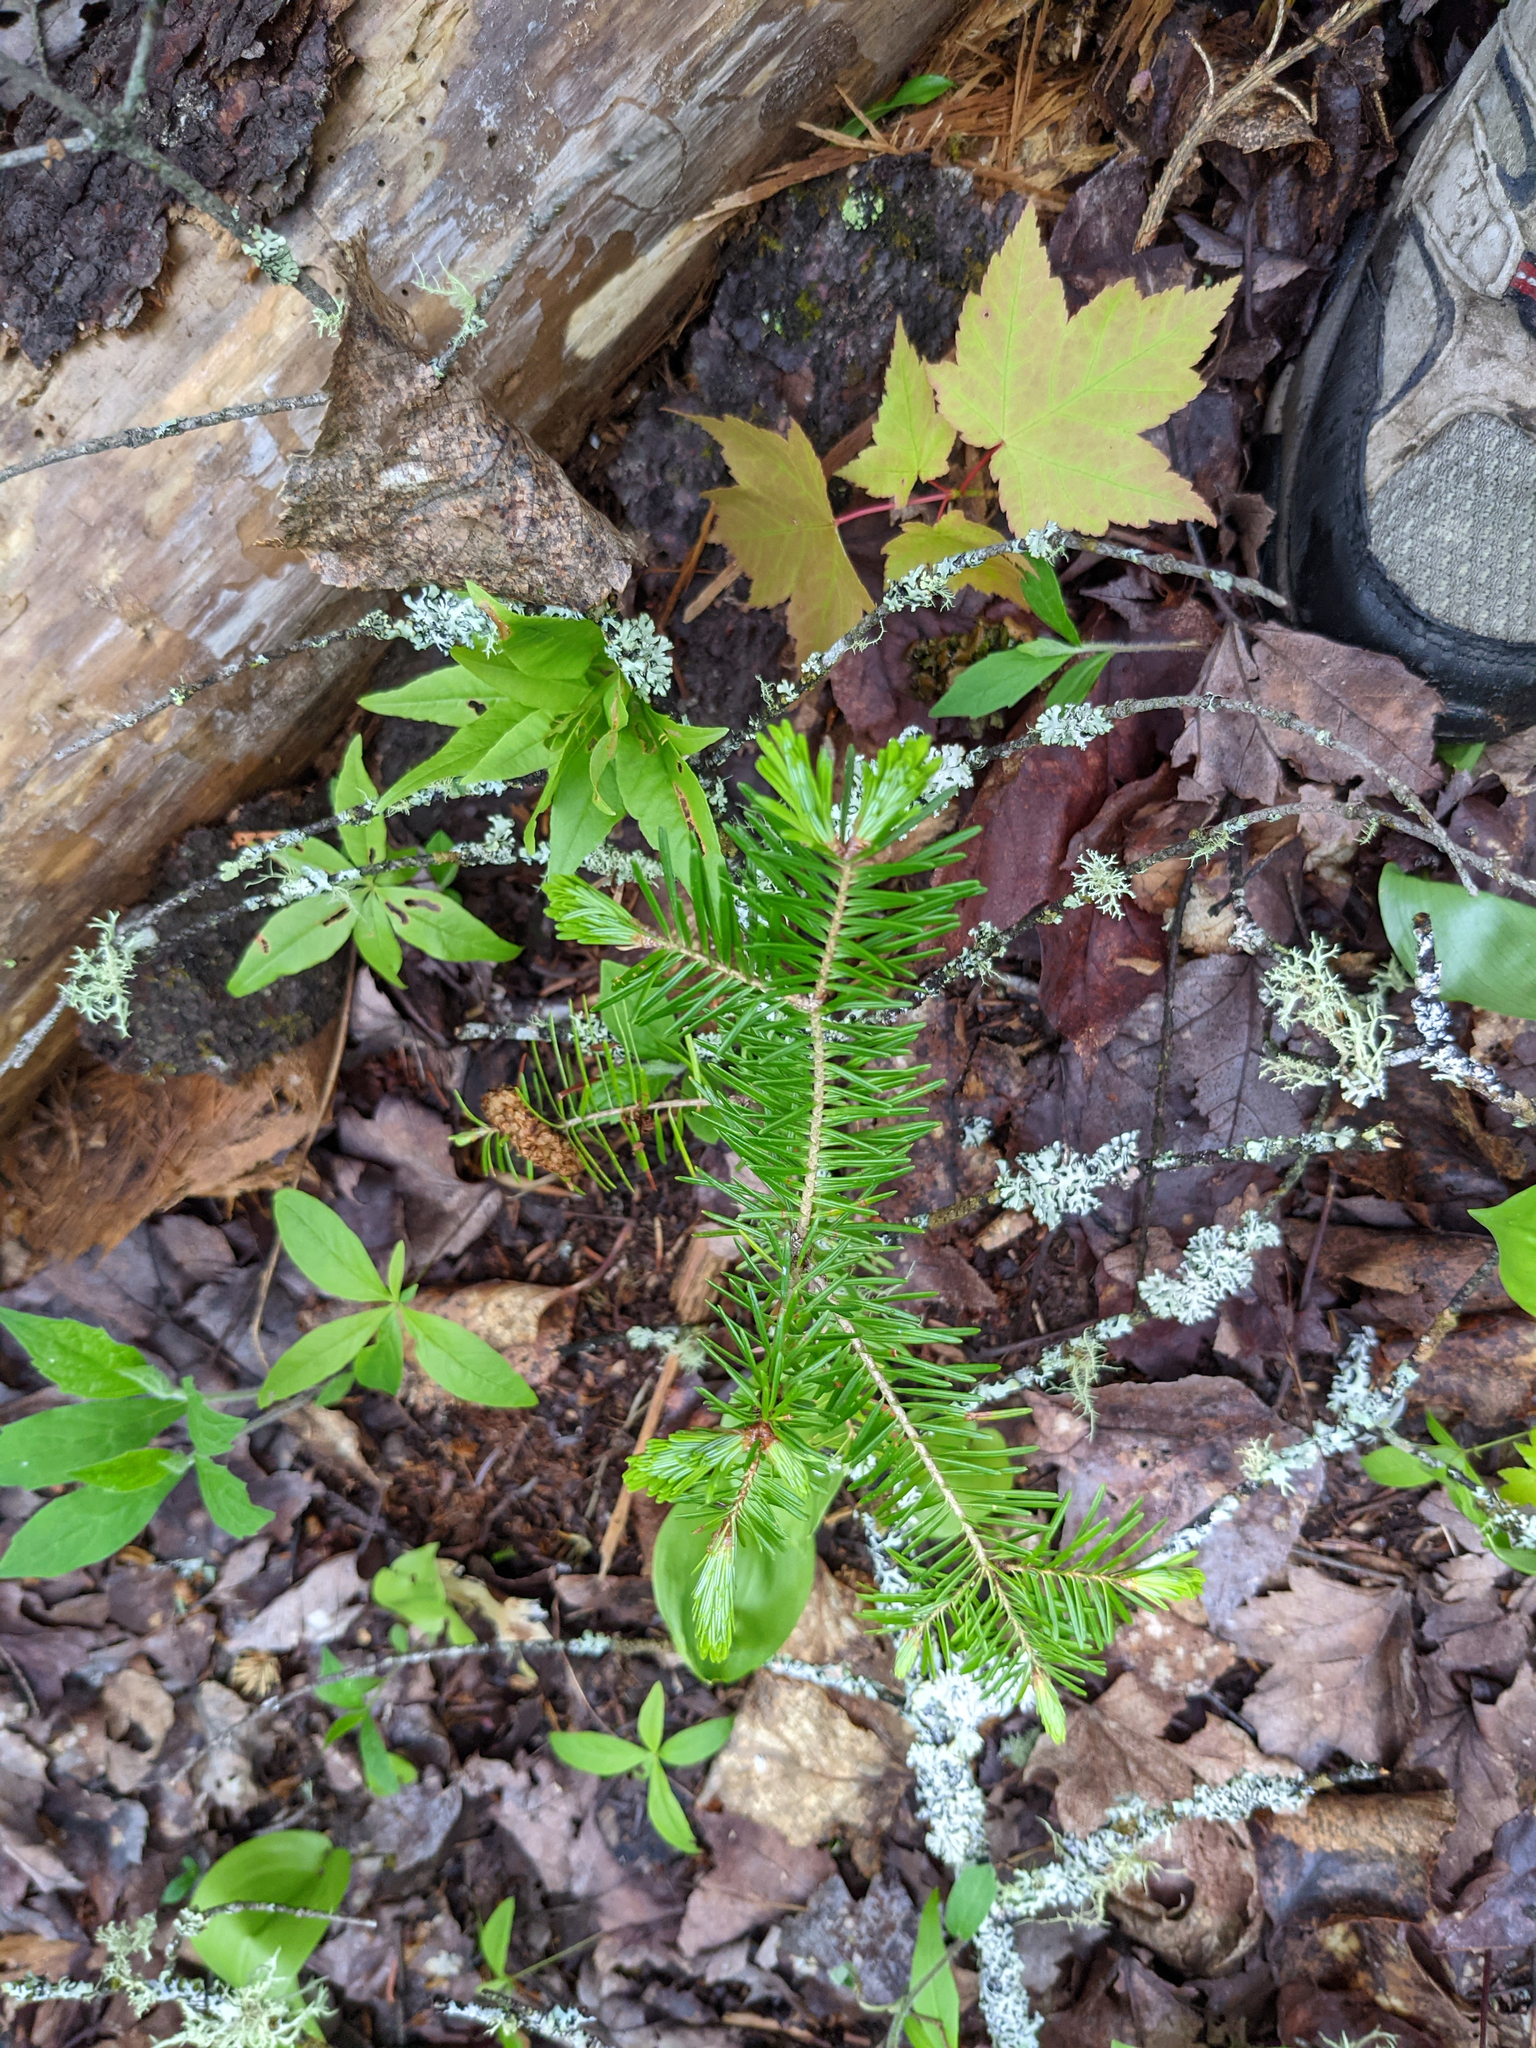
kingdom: Plantae
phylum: Tracheophyta
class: Pinopsida
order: Pinales
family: Pinaceae
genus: Abies
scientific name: Abies balsamea
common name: Balsam fir
